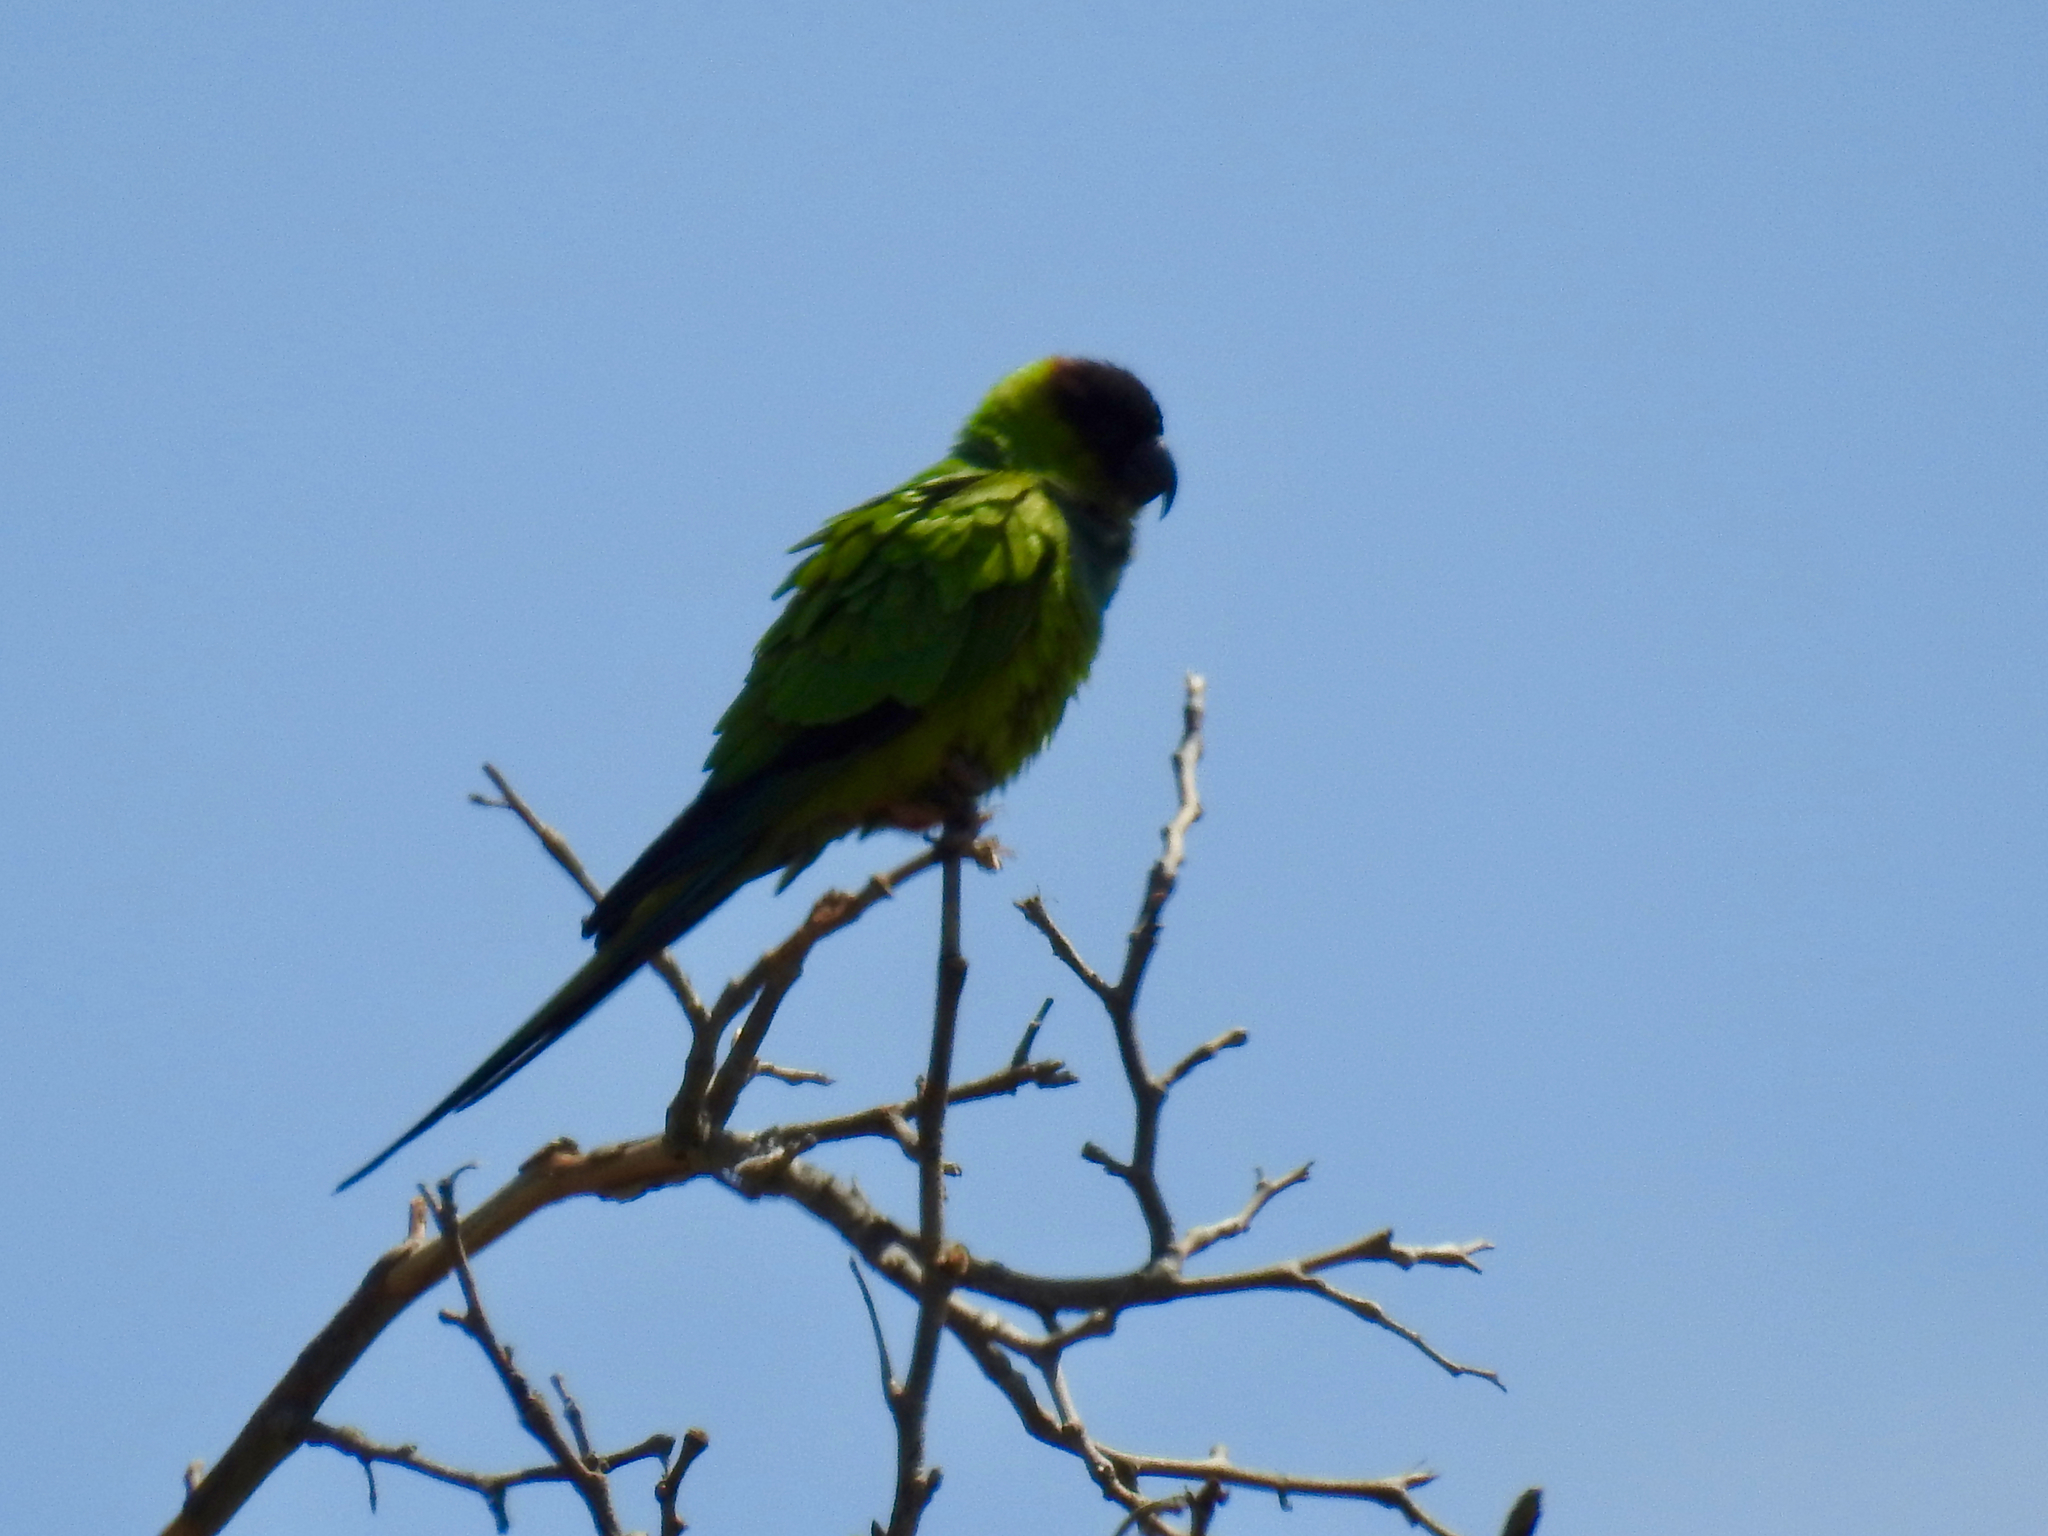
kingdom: Animalia
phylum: Chordata
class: Aves
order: Psittaciformes
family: Psittacidae
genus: Nandayus
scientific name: Nandayus nenday
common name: Nanday parakeet
